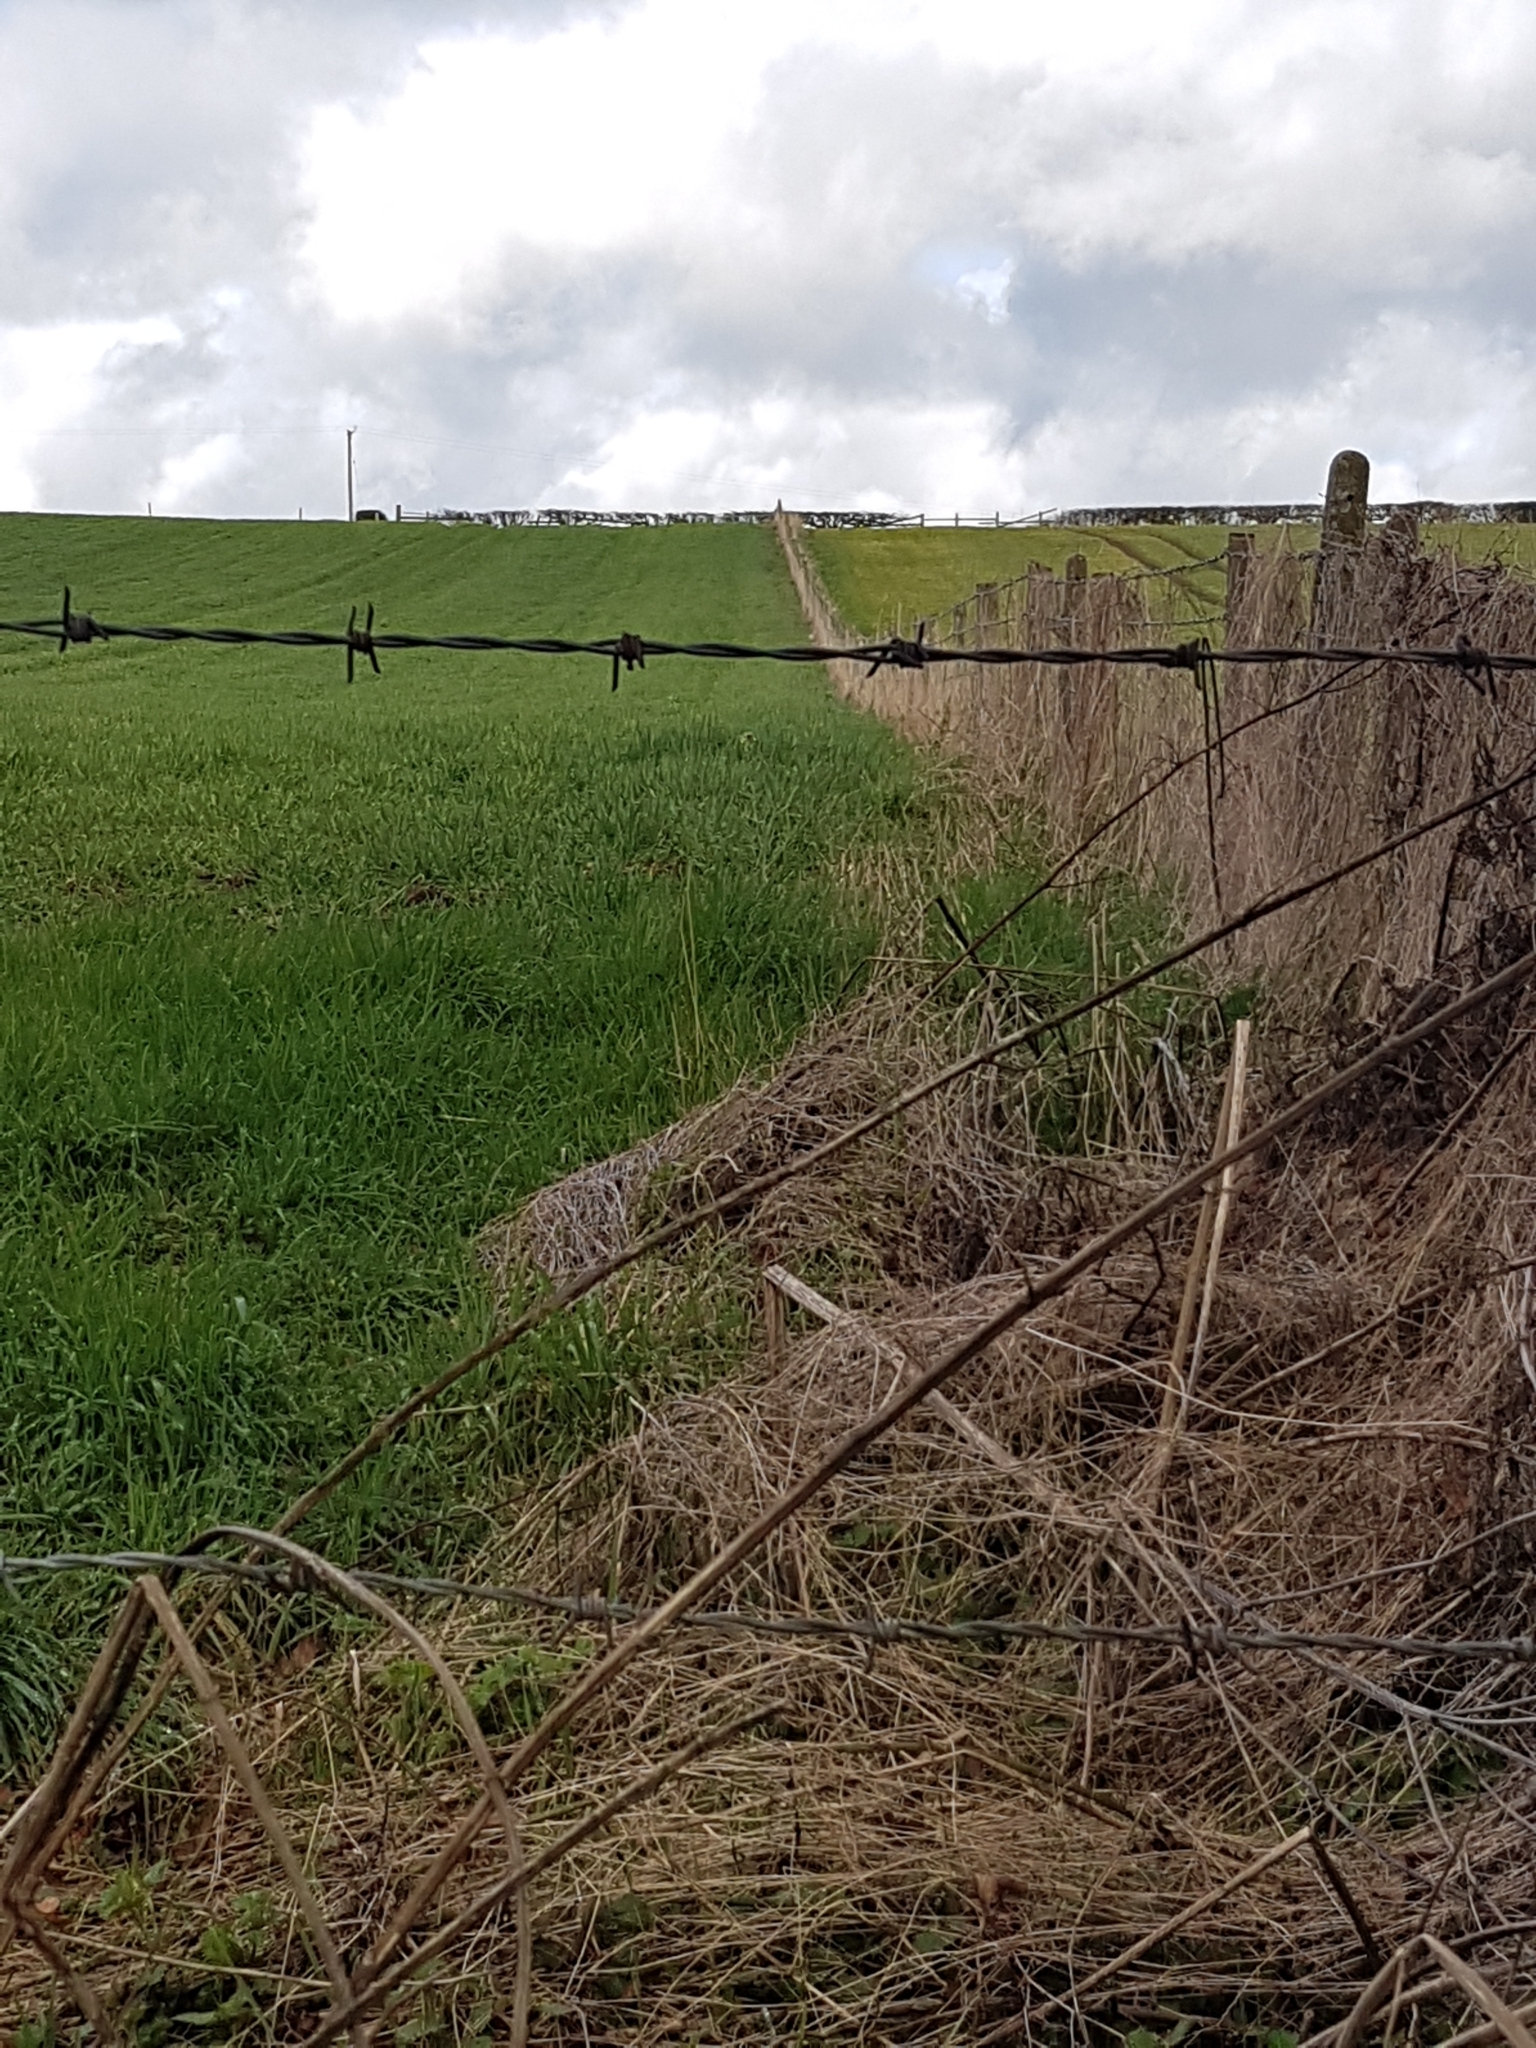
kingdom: Animalia
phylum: Chordata
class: Aves
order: Galliformes
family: Phasianidae
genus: Phasianus
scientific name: Phasianus colchicus
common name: Common pheasant
